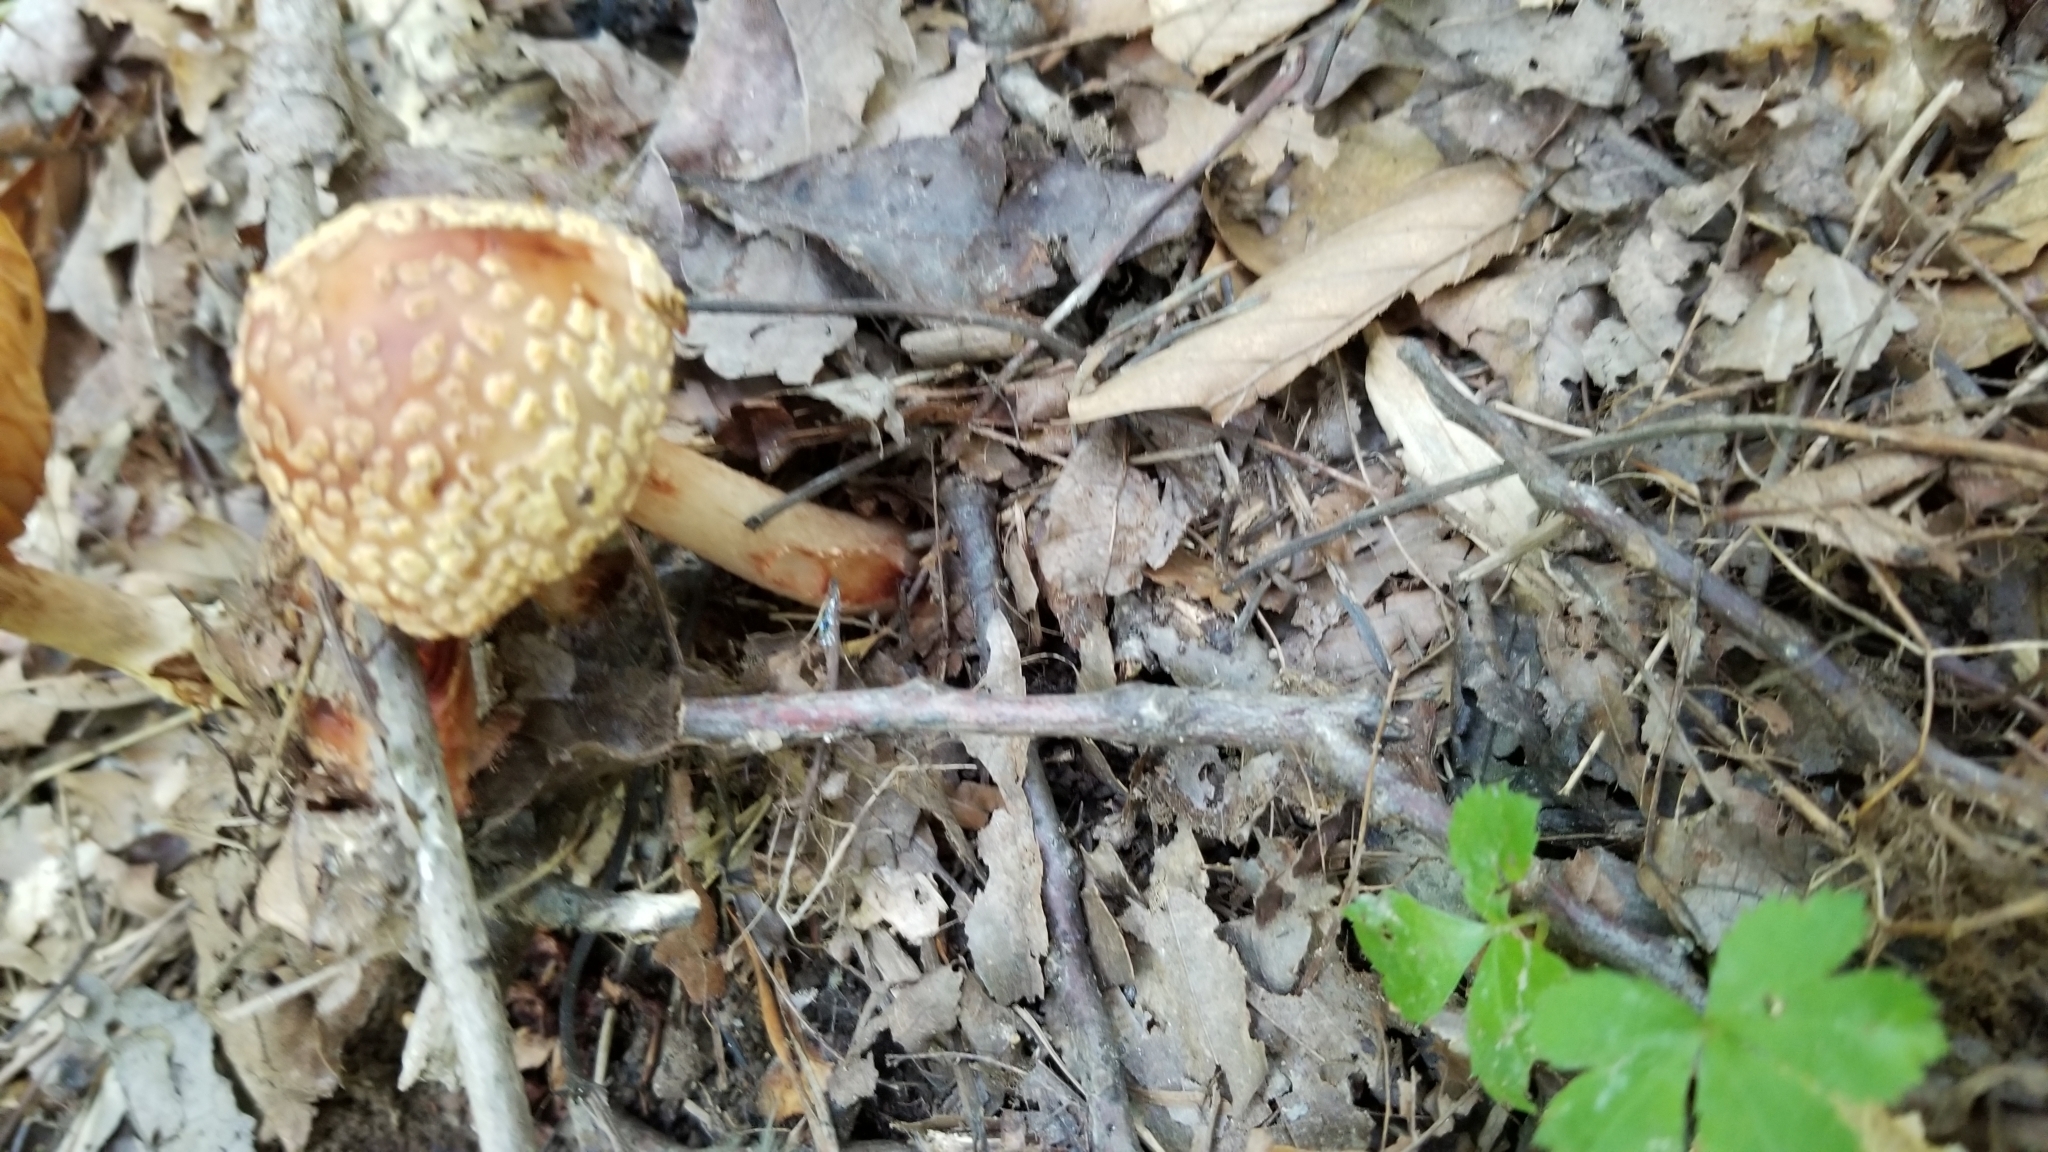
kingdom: Fungi
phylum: Basidiomycota
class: Agaricomycetes
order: Agaricales
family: Amanitaceae
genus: Amanita
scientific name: Amanita rubescens
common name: Blusher
